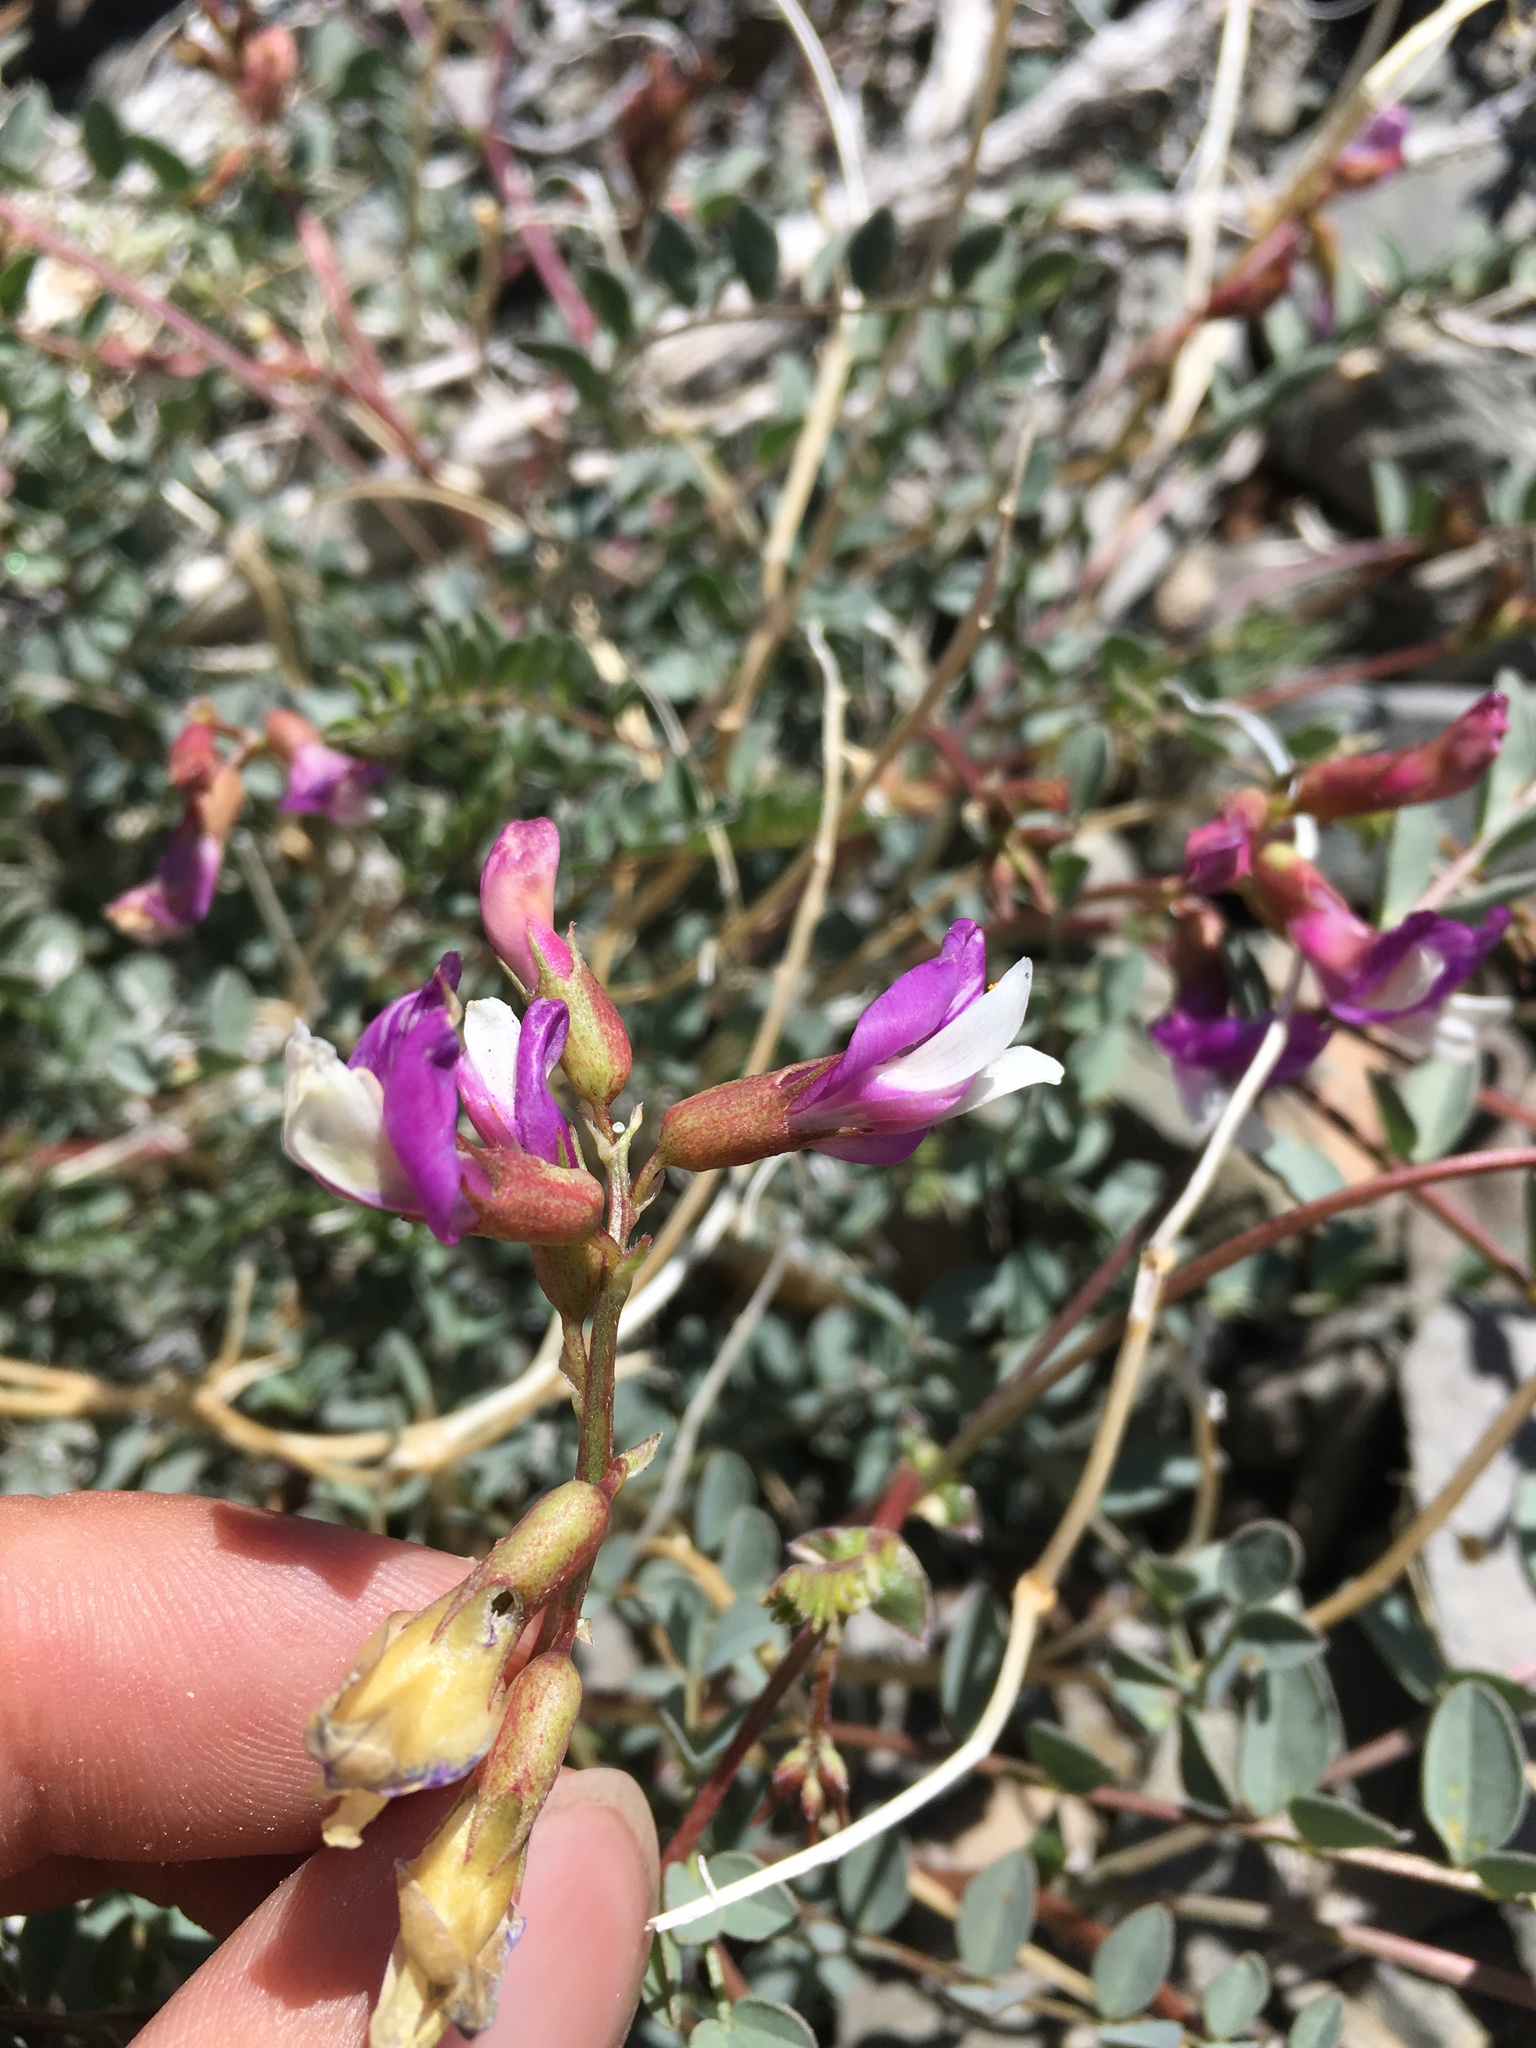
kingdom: Plantae
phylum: Tracheophyta
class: Magnoliopsida
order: Fabales
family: Fabaceae
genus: Astragalus
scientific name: Astragalus oophorus
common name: Egg milkvetch
